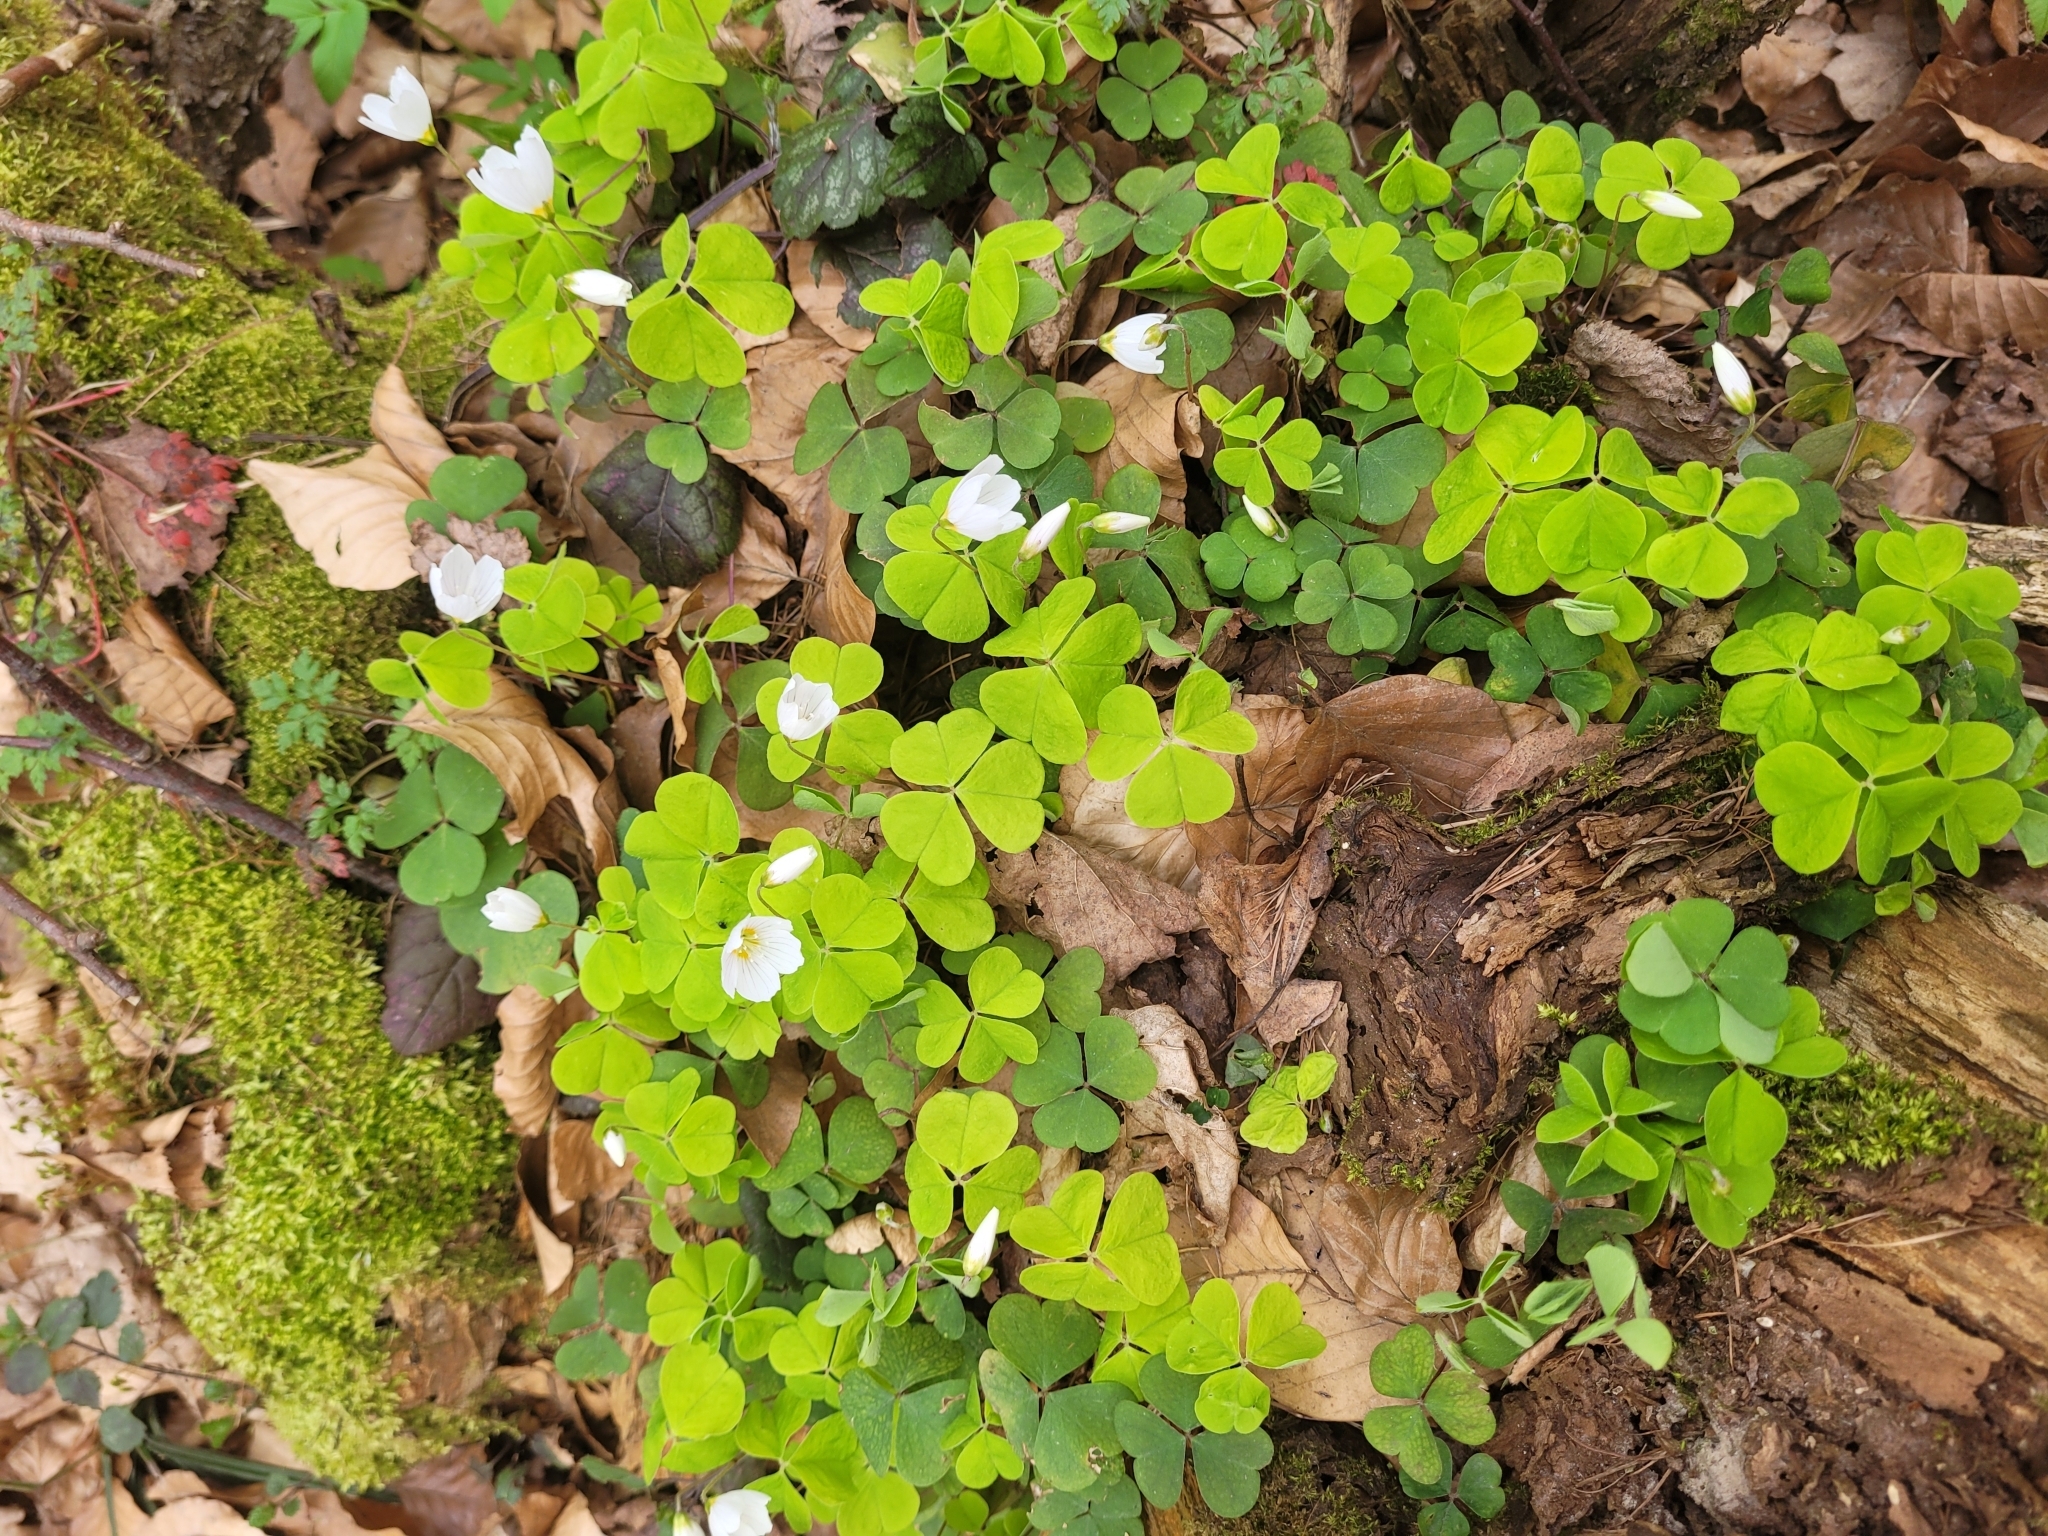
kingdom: Plantae
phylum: Tracheophyta
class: Magnoliopsida
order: Oxalidales
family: Oxalidaceae
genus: Oxalis
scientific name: Oxalis acetosella
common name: Wood-sorrel
